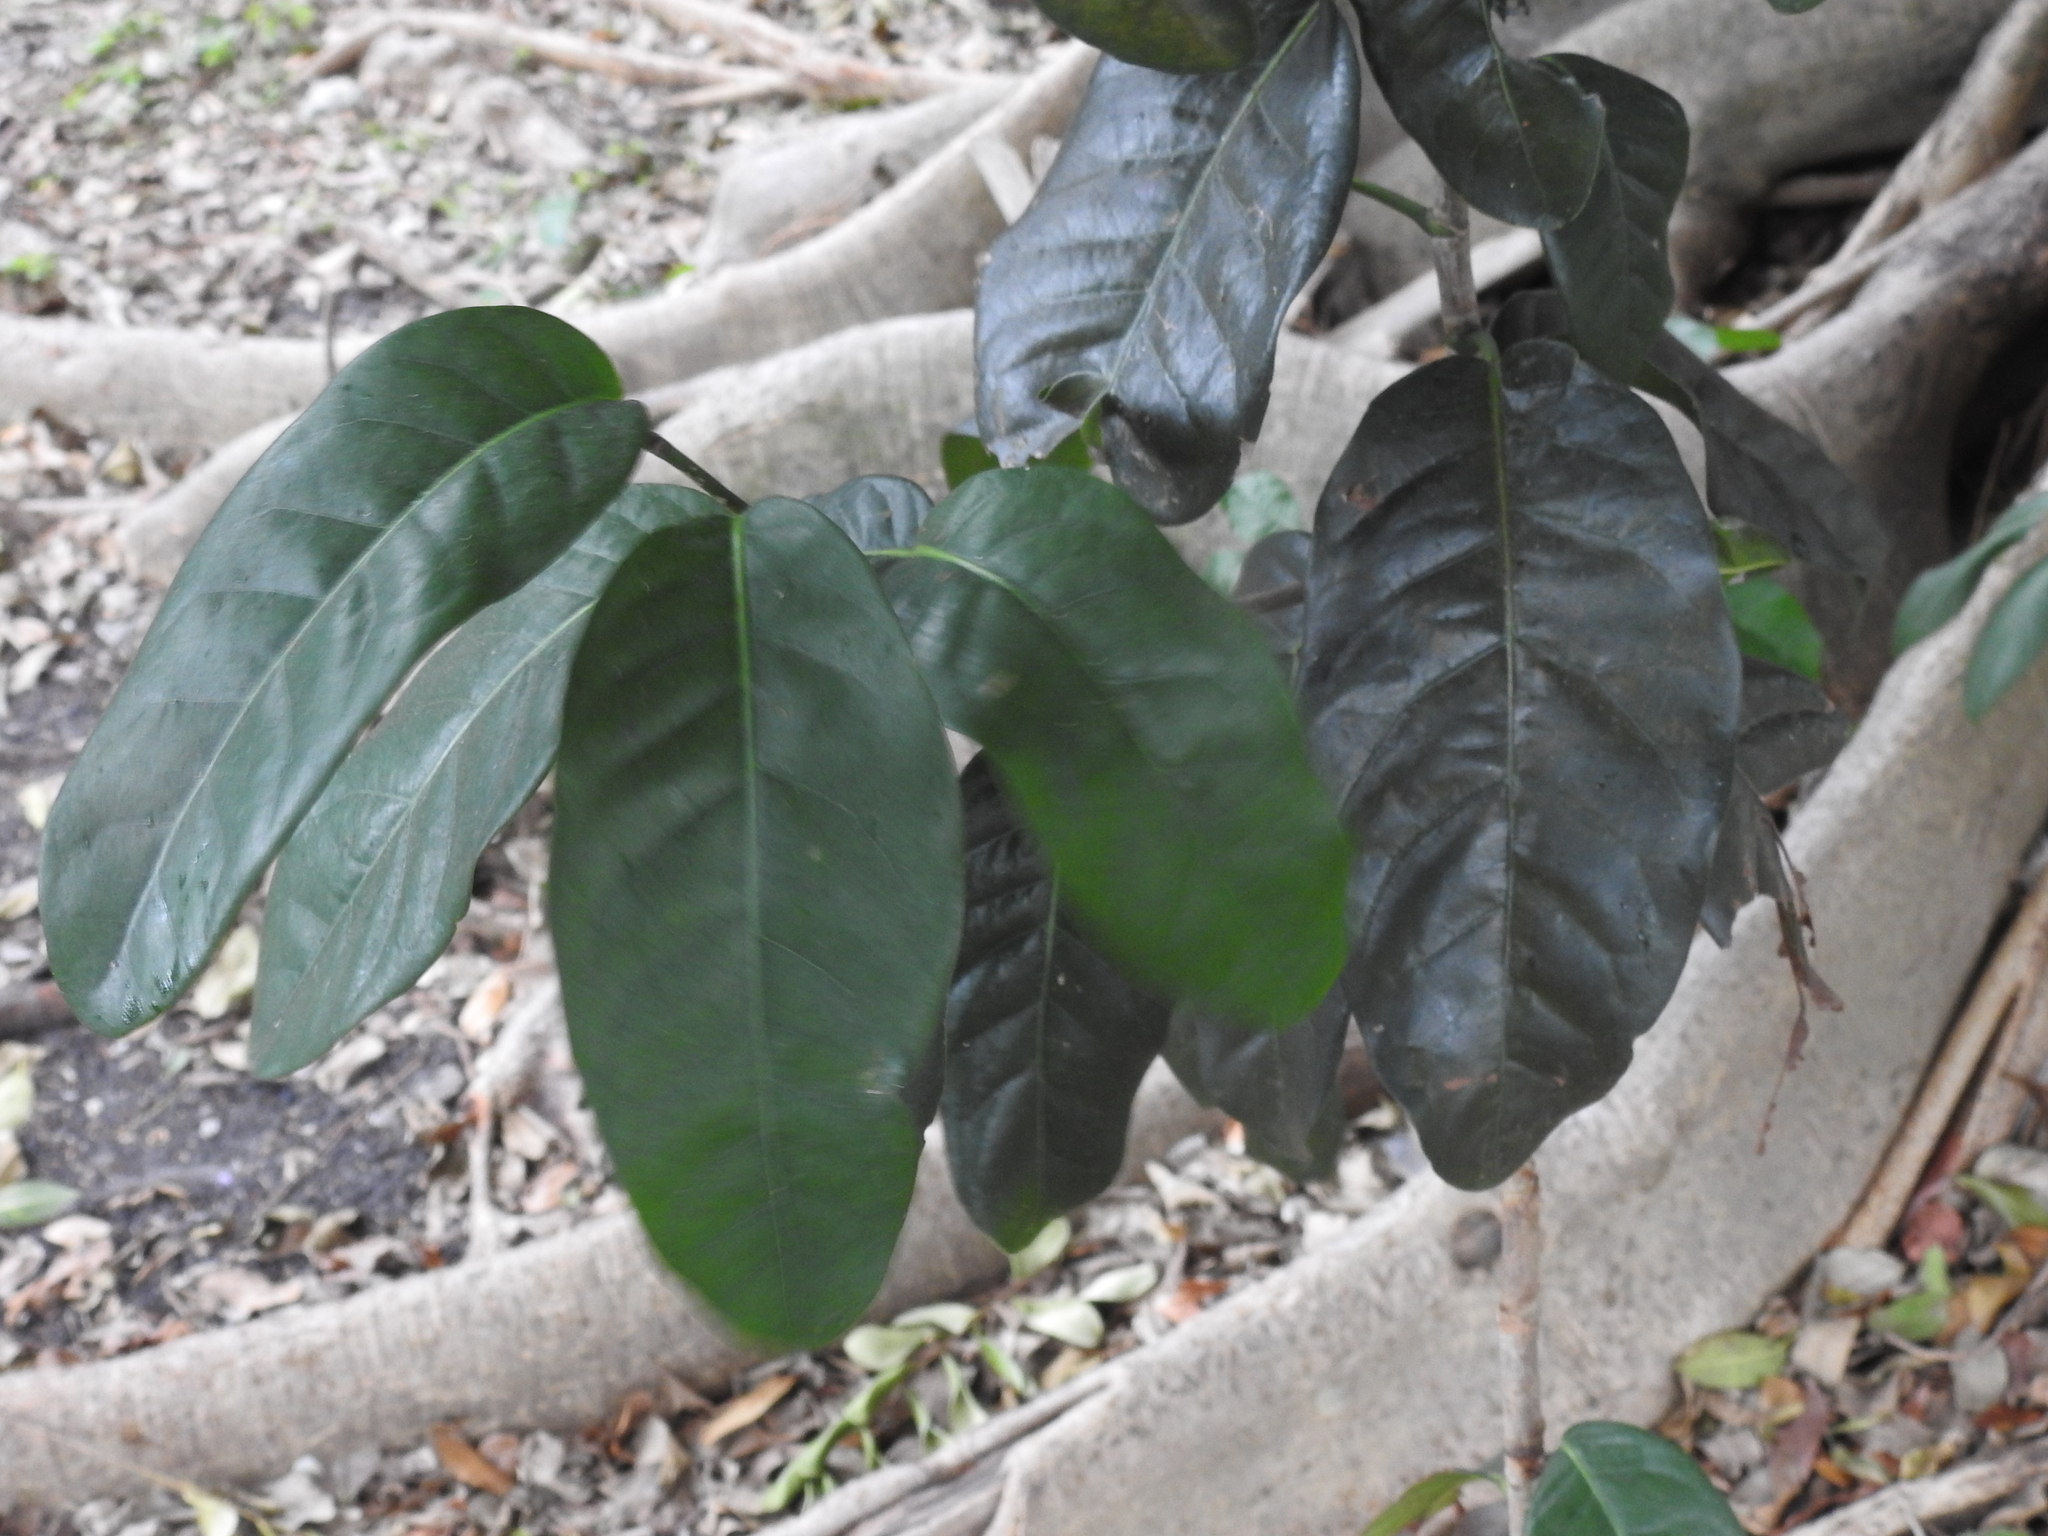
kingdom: Plantae
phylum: Tracheophyta
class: Magnoliopsida
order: Caryophyllales
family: Polygonaceae
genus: Coccoloba
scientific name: Coccoloba diversifolia
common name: Pigeon-plum
